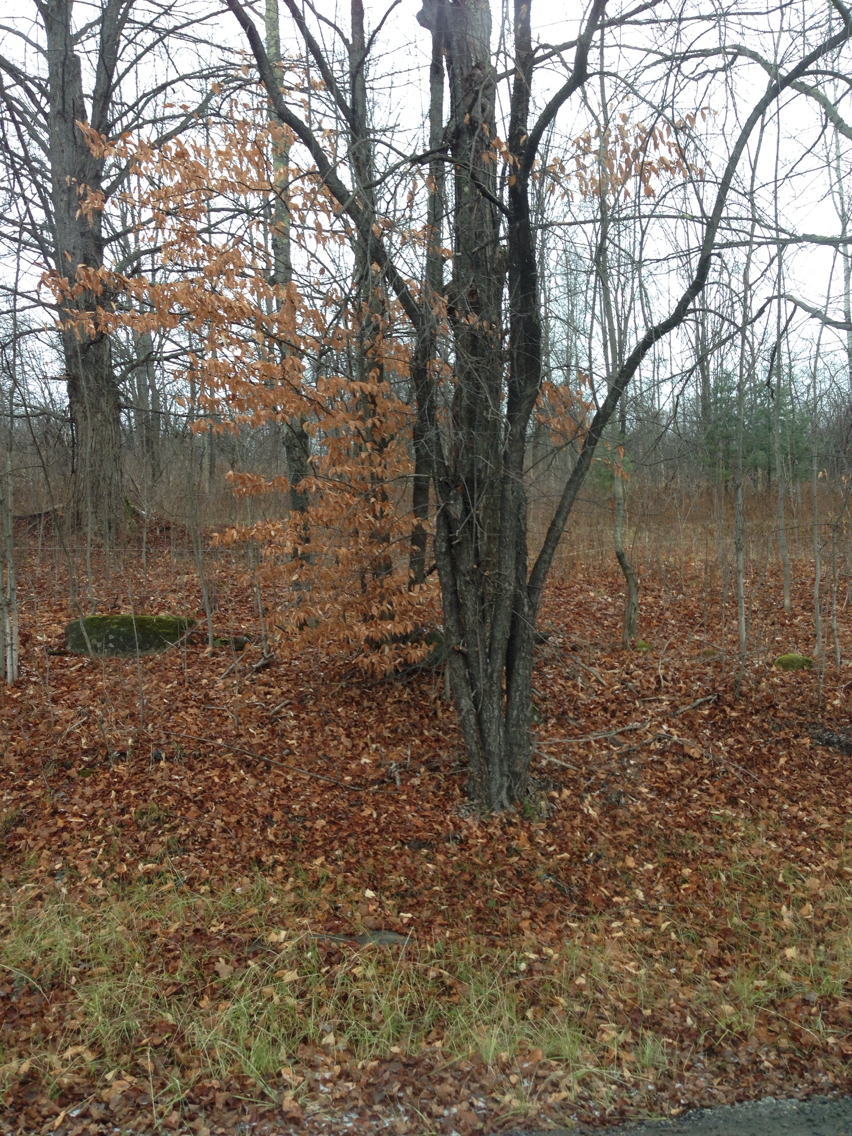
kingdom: Plantae
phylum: Tracheophyta
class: Magnoliopsida
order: Fagales
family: Fagaceae
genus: Fagus
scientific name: Fagus grandifolia
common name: American beech
